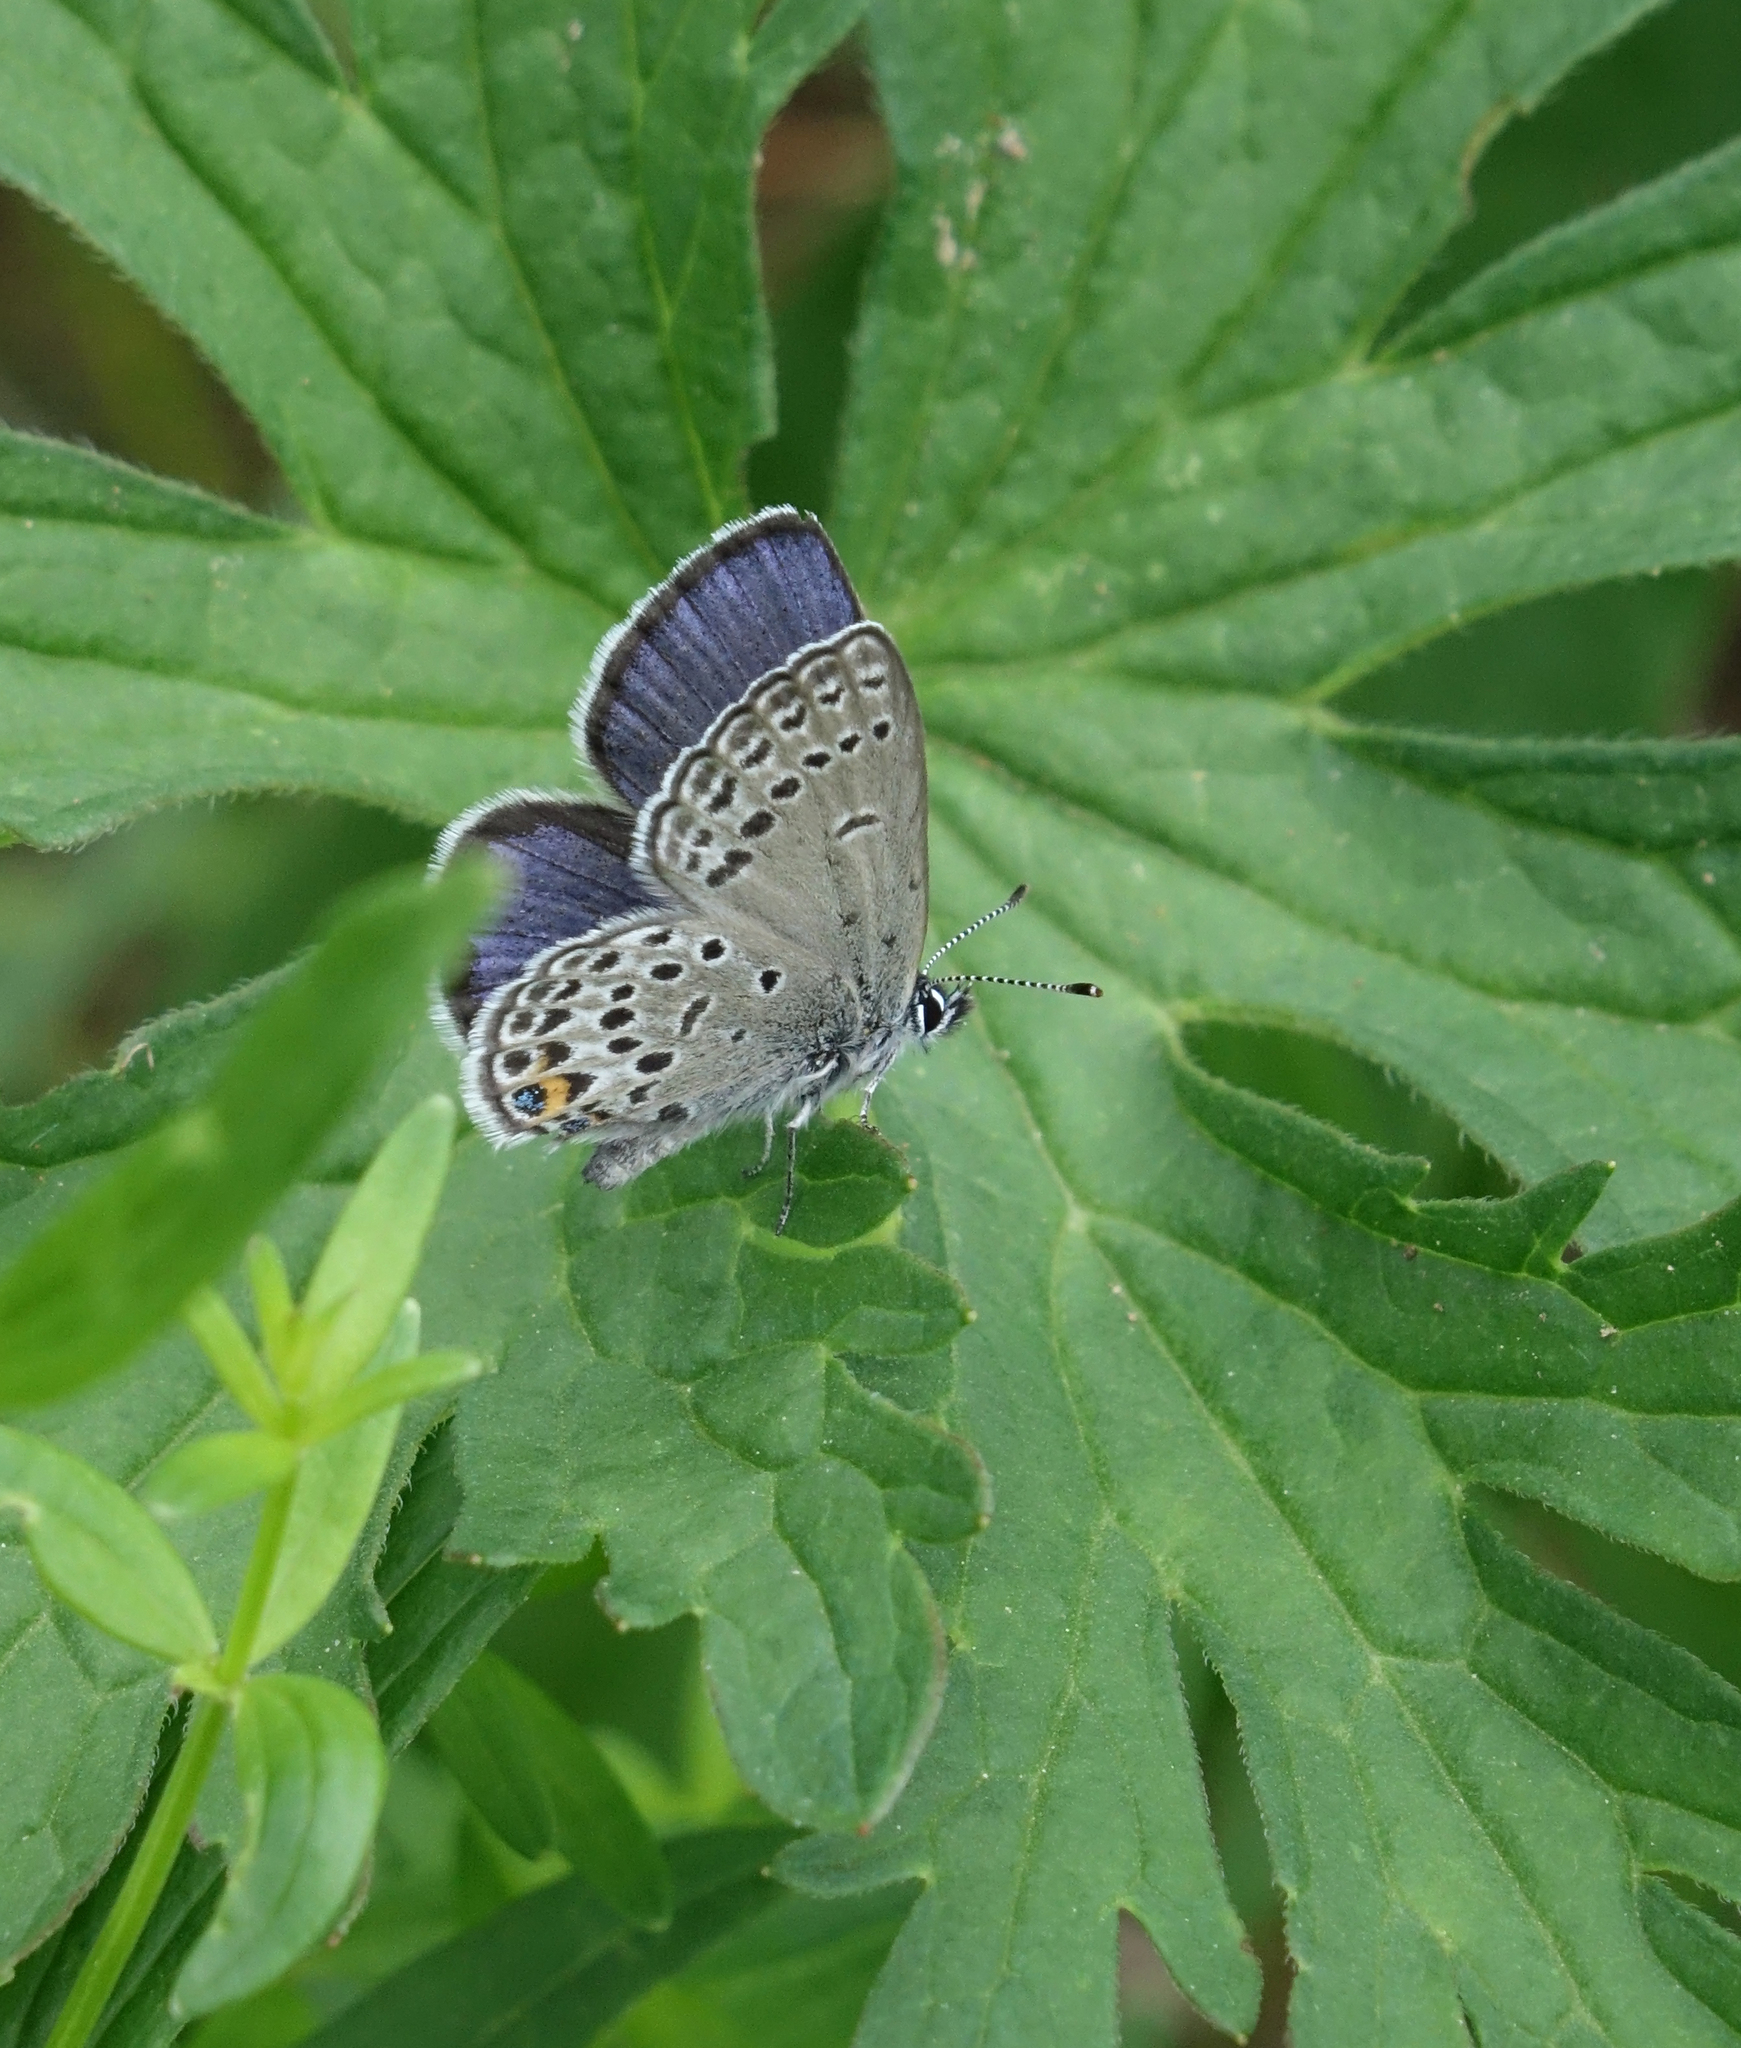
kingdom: Animalia
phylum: Arthropoda
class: Insecta
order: Lepidoptera
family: Lycaenidae
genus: Vacciniina
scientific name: Vacciniina optilete
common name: Cranberry blue
